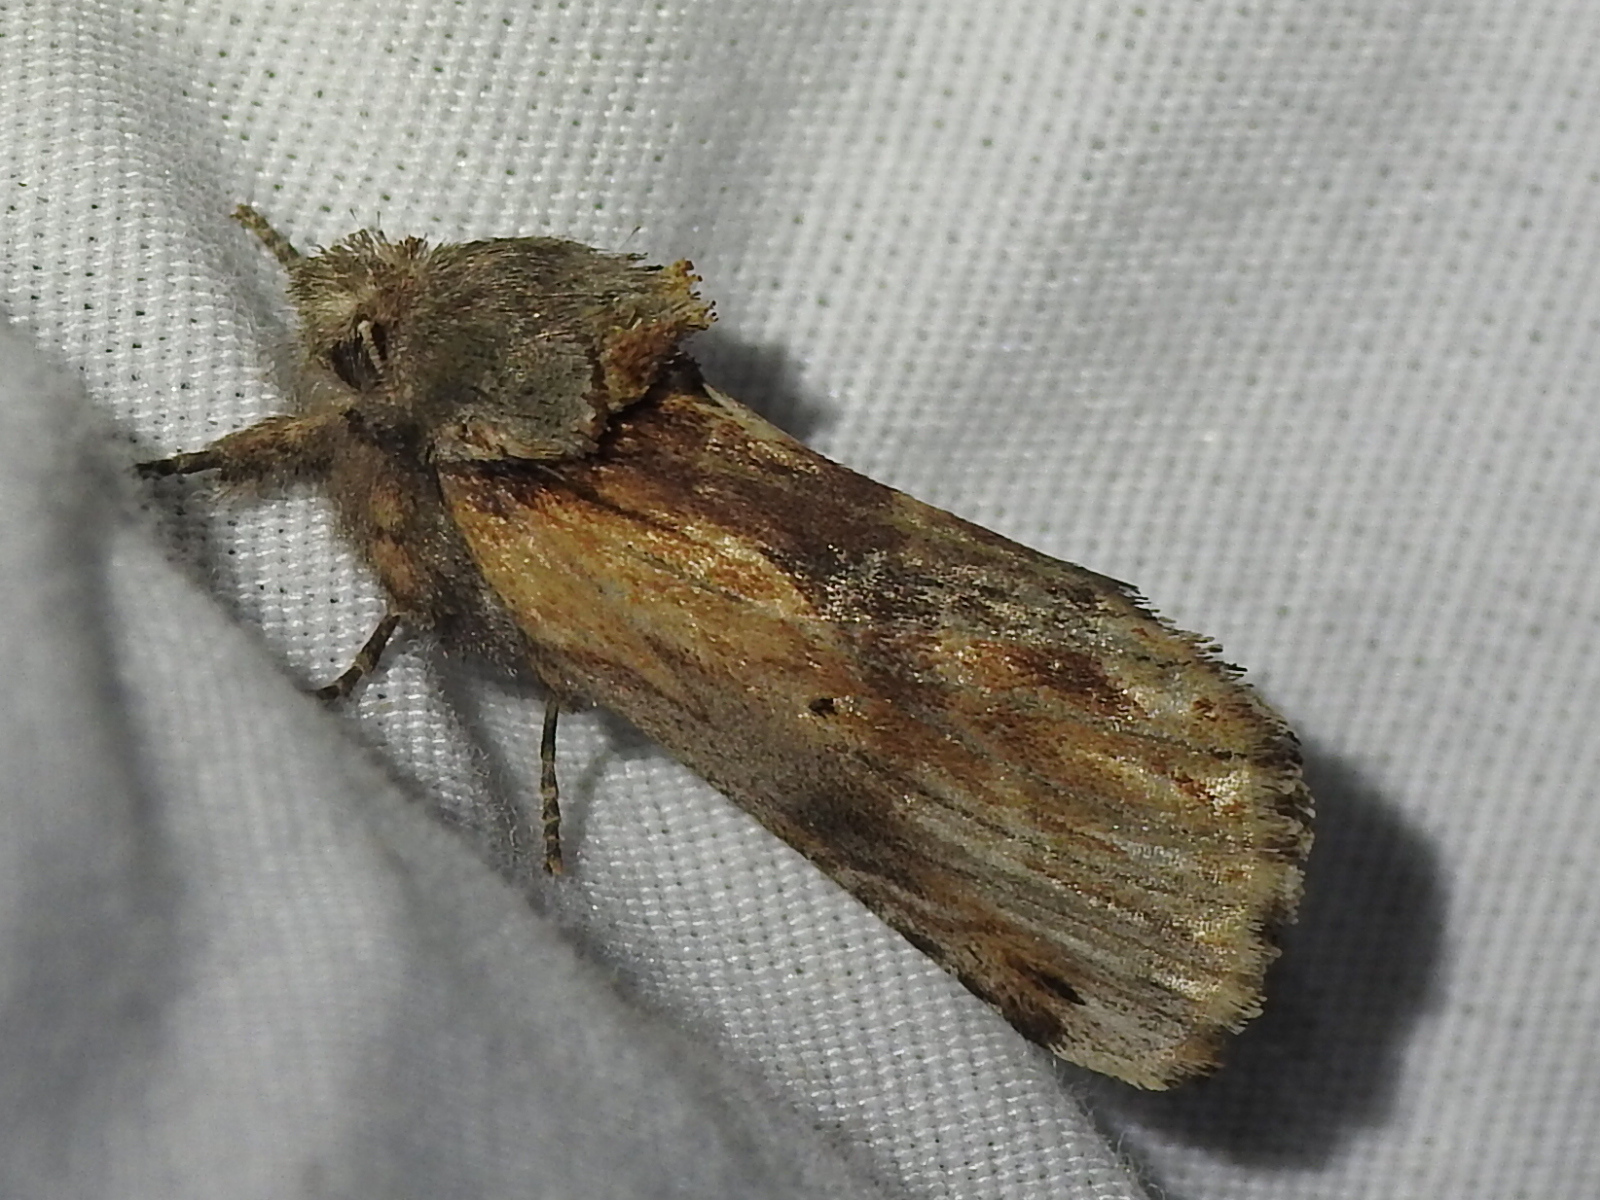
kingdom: Animalia
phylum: Arthropoda
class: Insecta
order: Lepidoptera
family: Notodontidae
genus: Schizura
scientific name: Schizura
